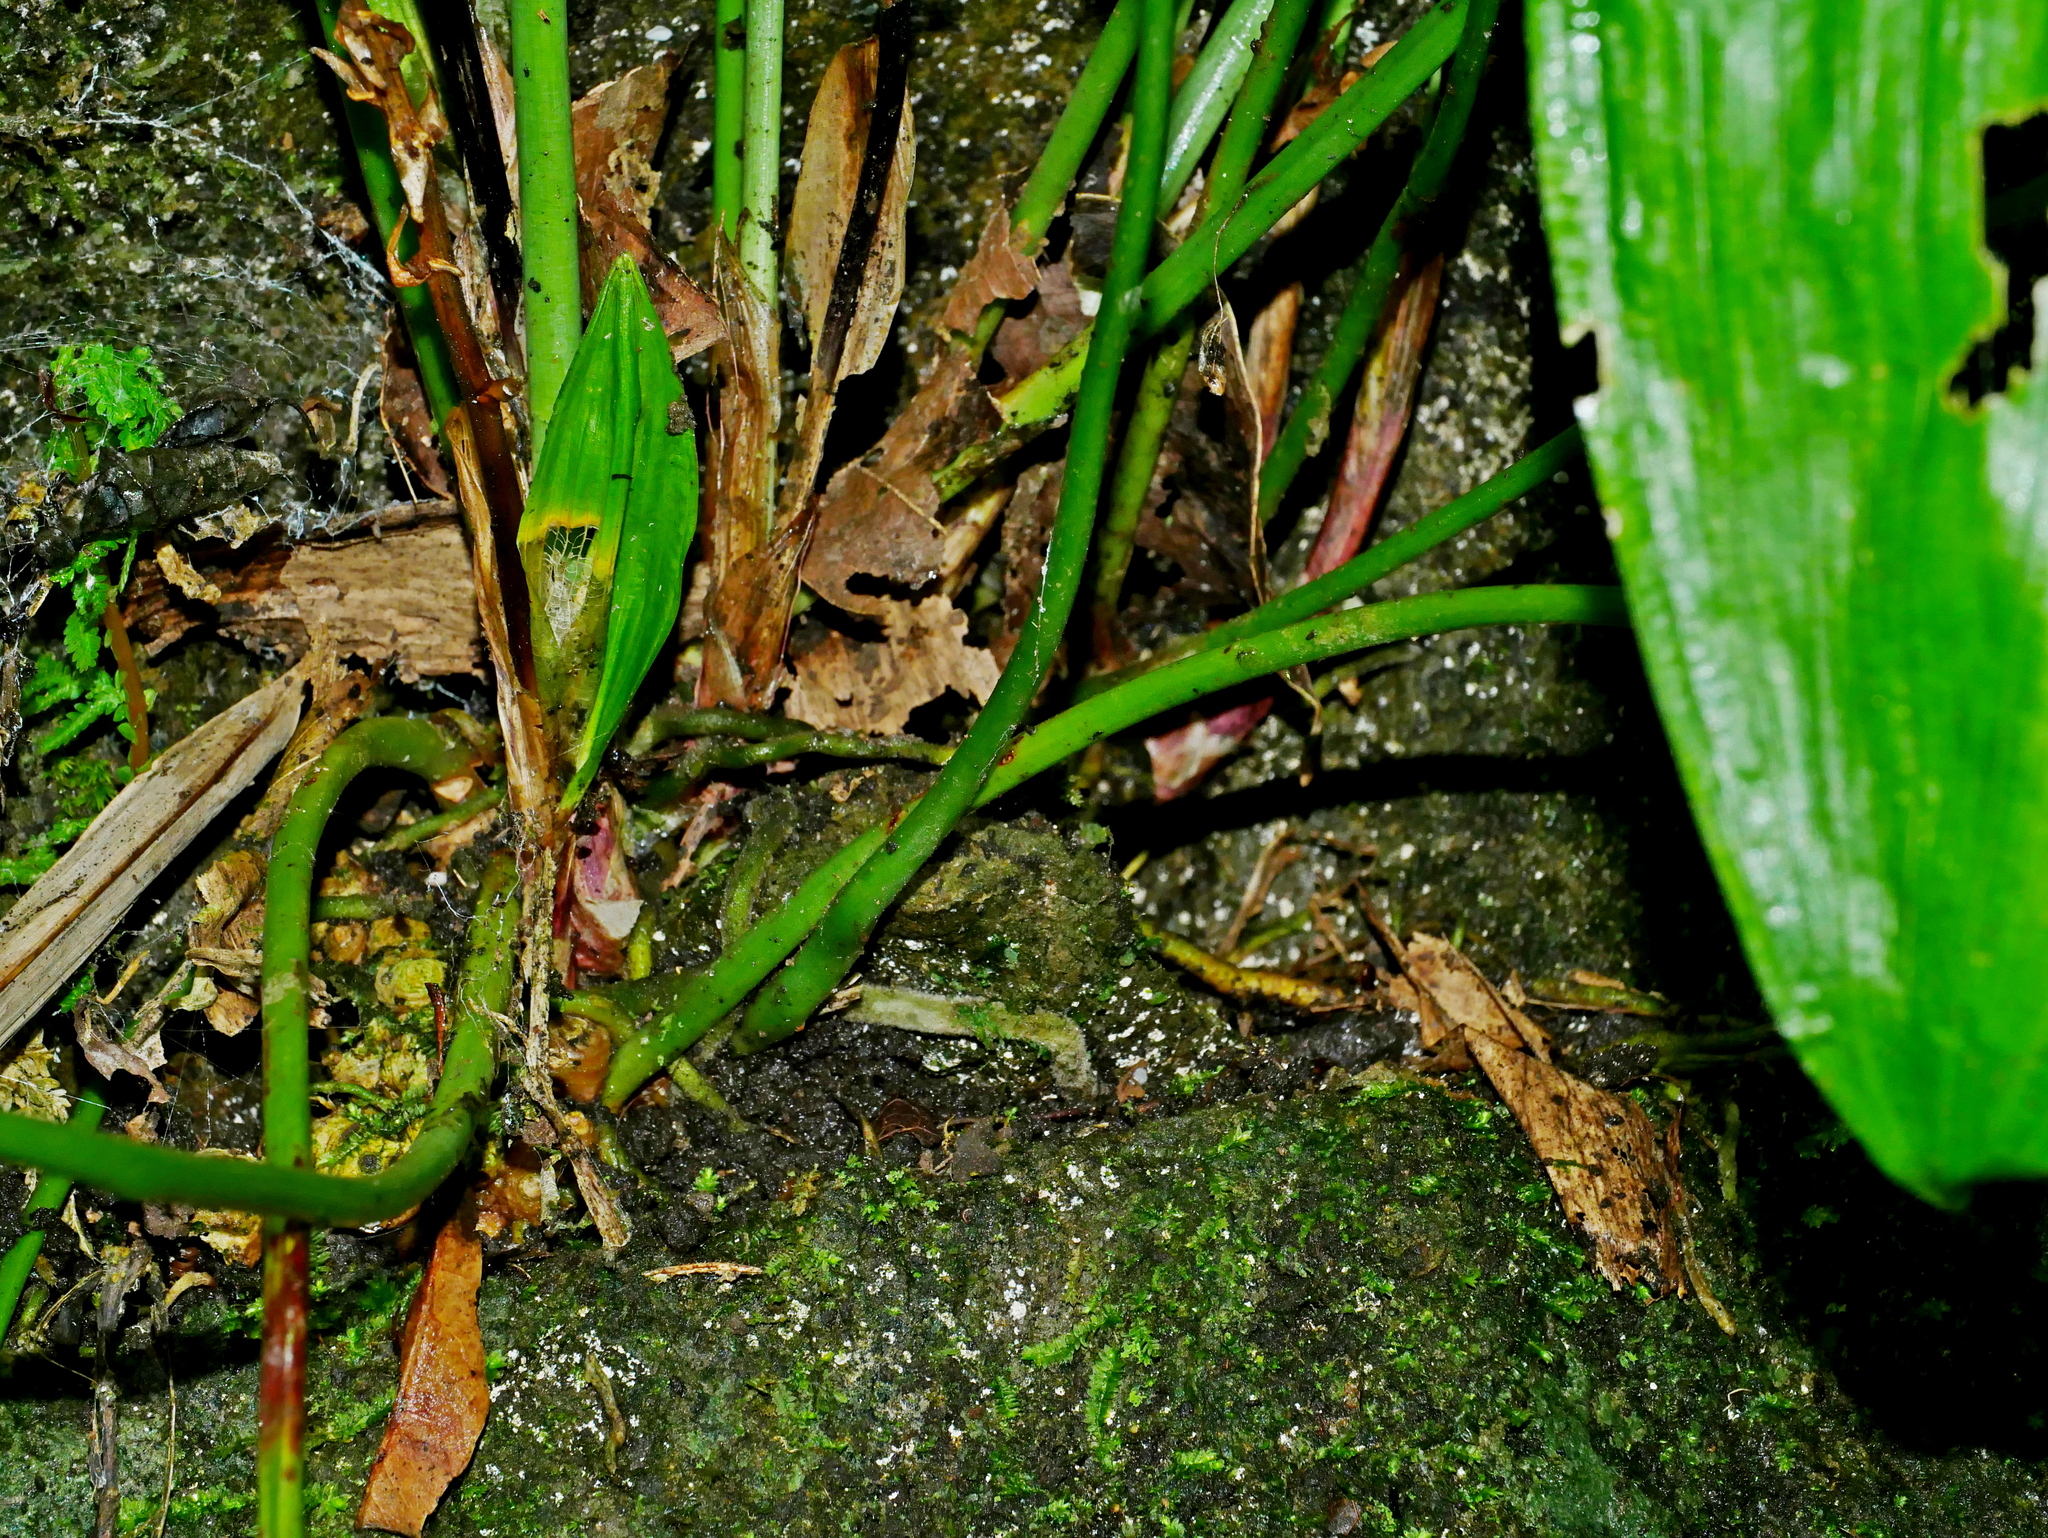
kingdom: Plantae
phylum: Tracheophyta
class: Liliopsida
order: Asparagales
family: Asparagaceae
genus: Peliosanthes
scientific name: Peliosanthes macrostegia
